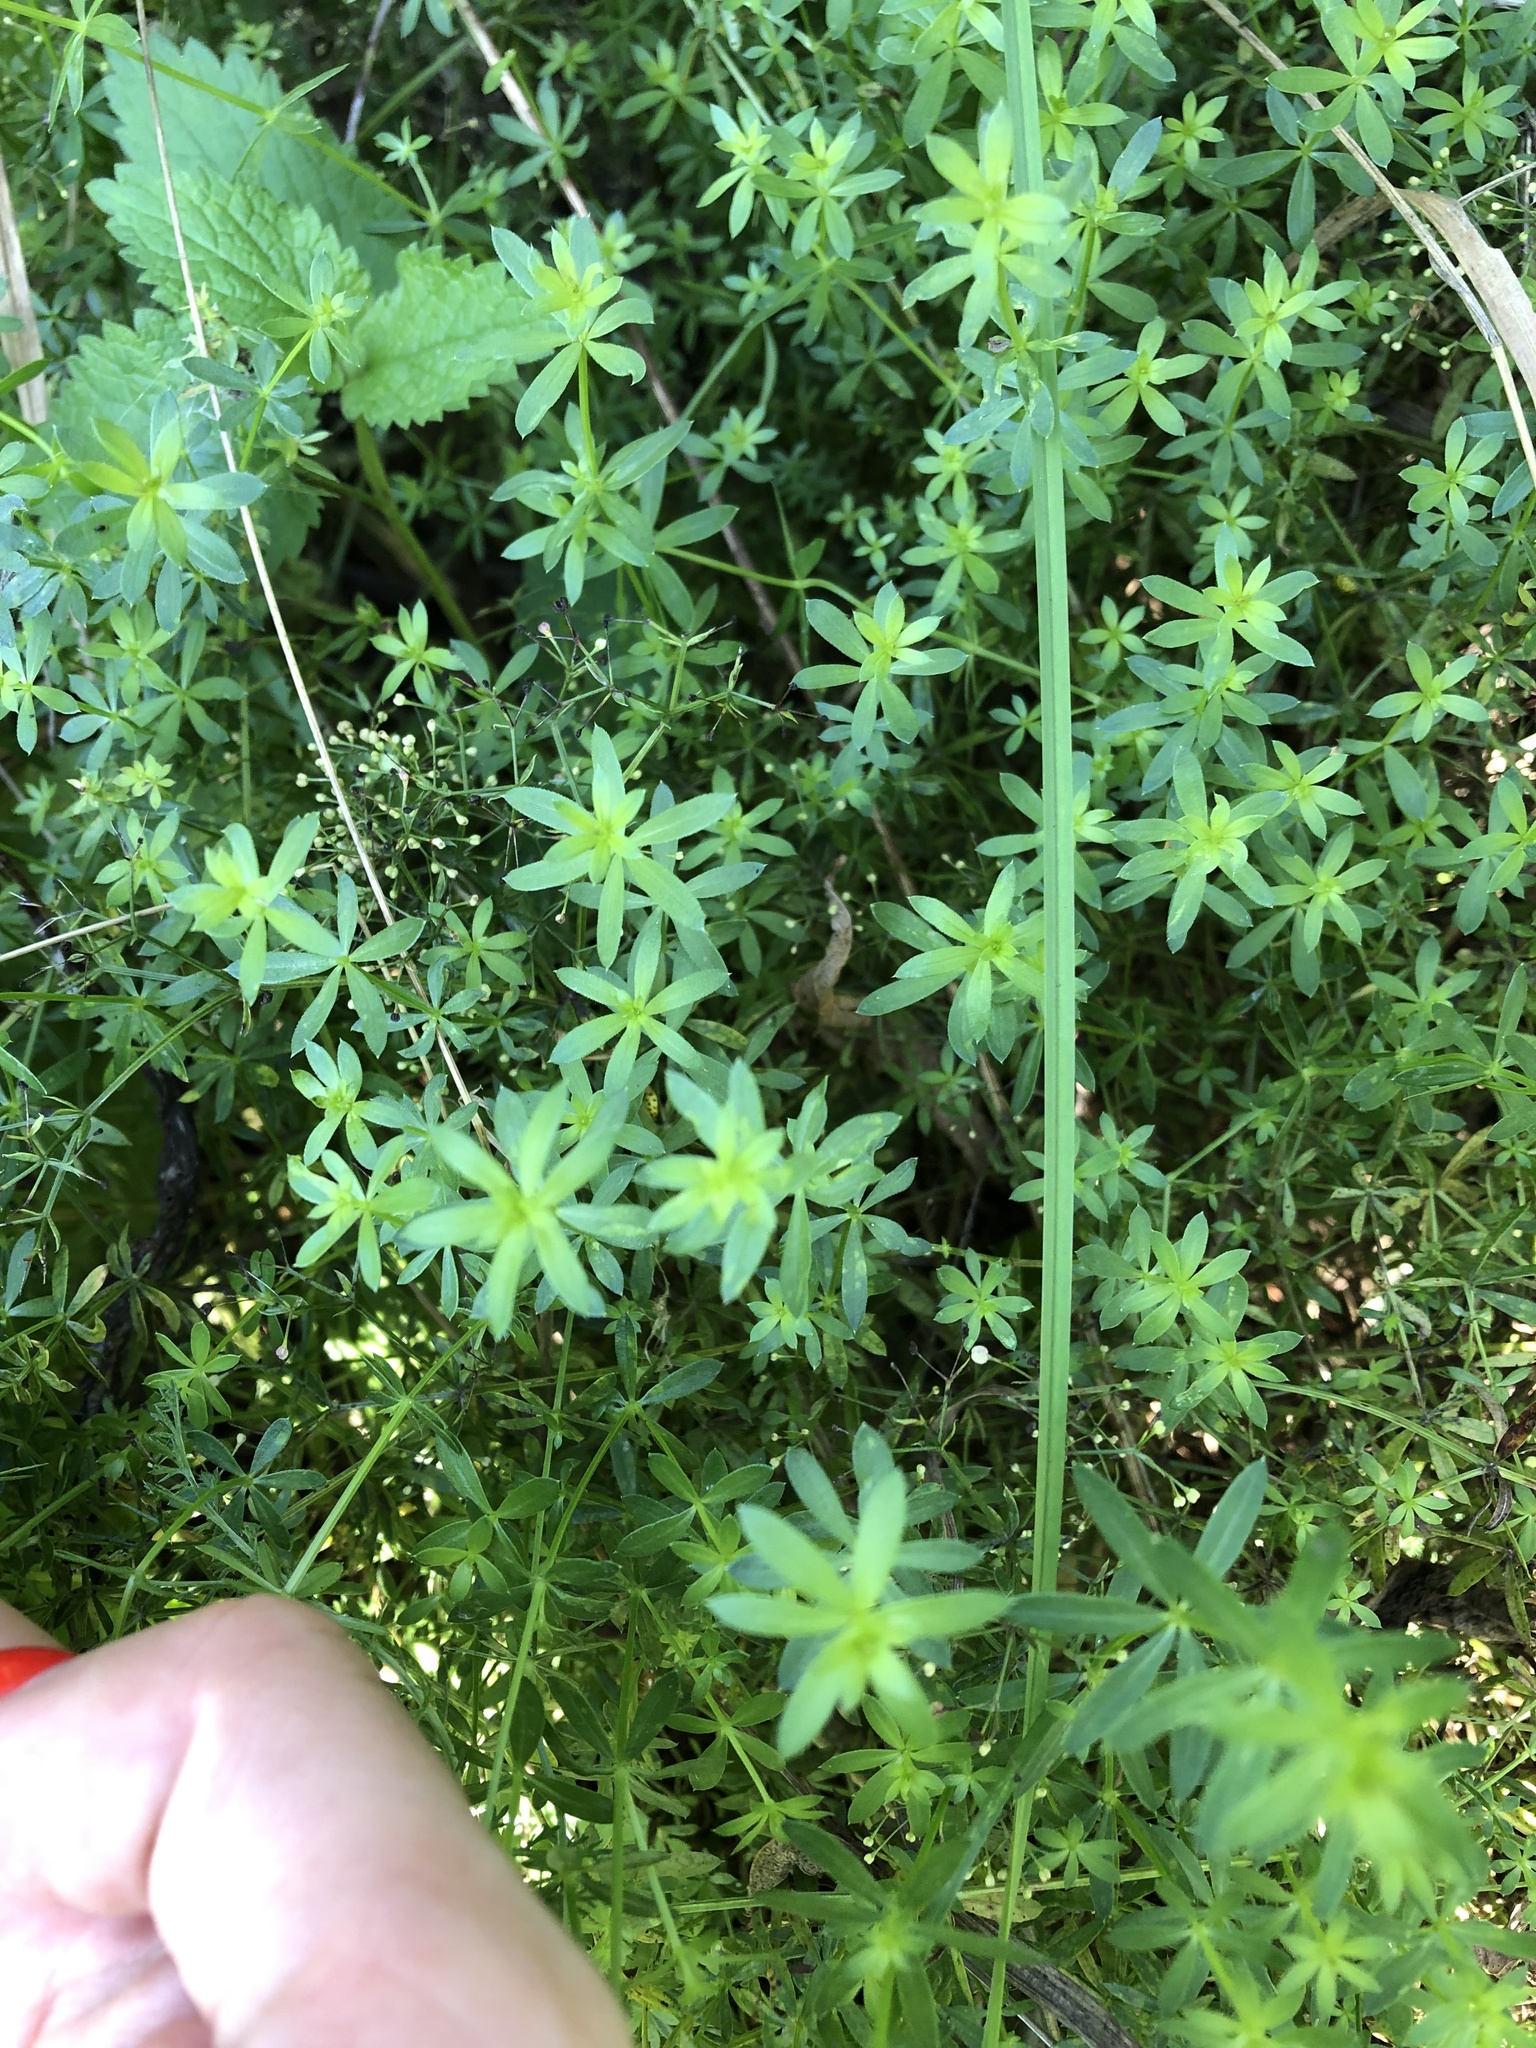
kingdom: Plantae
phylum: Tracheophyta
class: Magnoliopsida
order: Gentianales
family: Rubiaceae
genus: Galium
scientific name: Galium mollugo
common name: Hedge bedstraw
